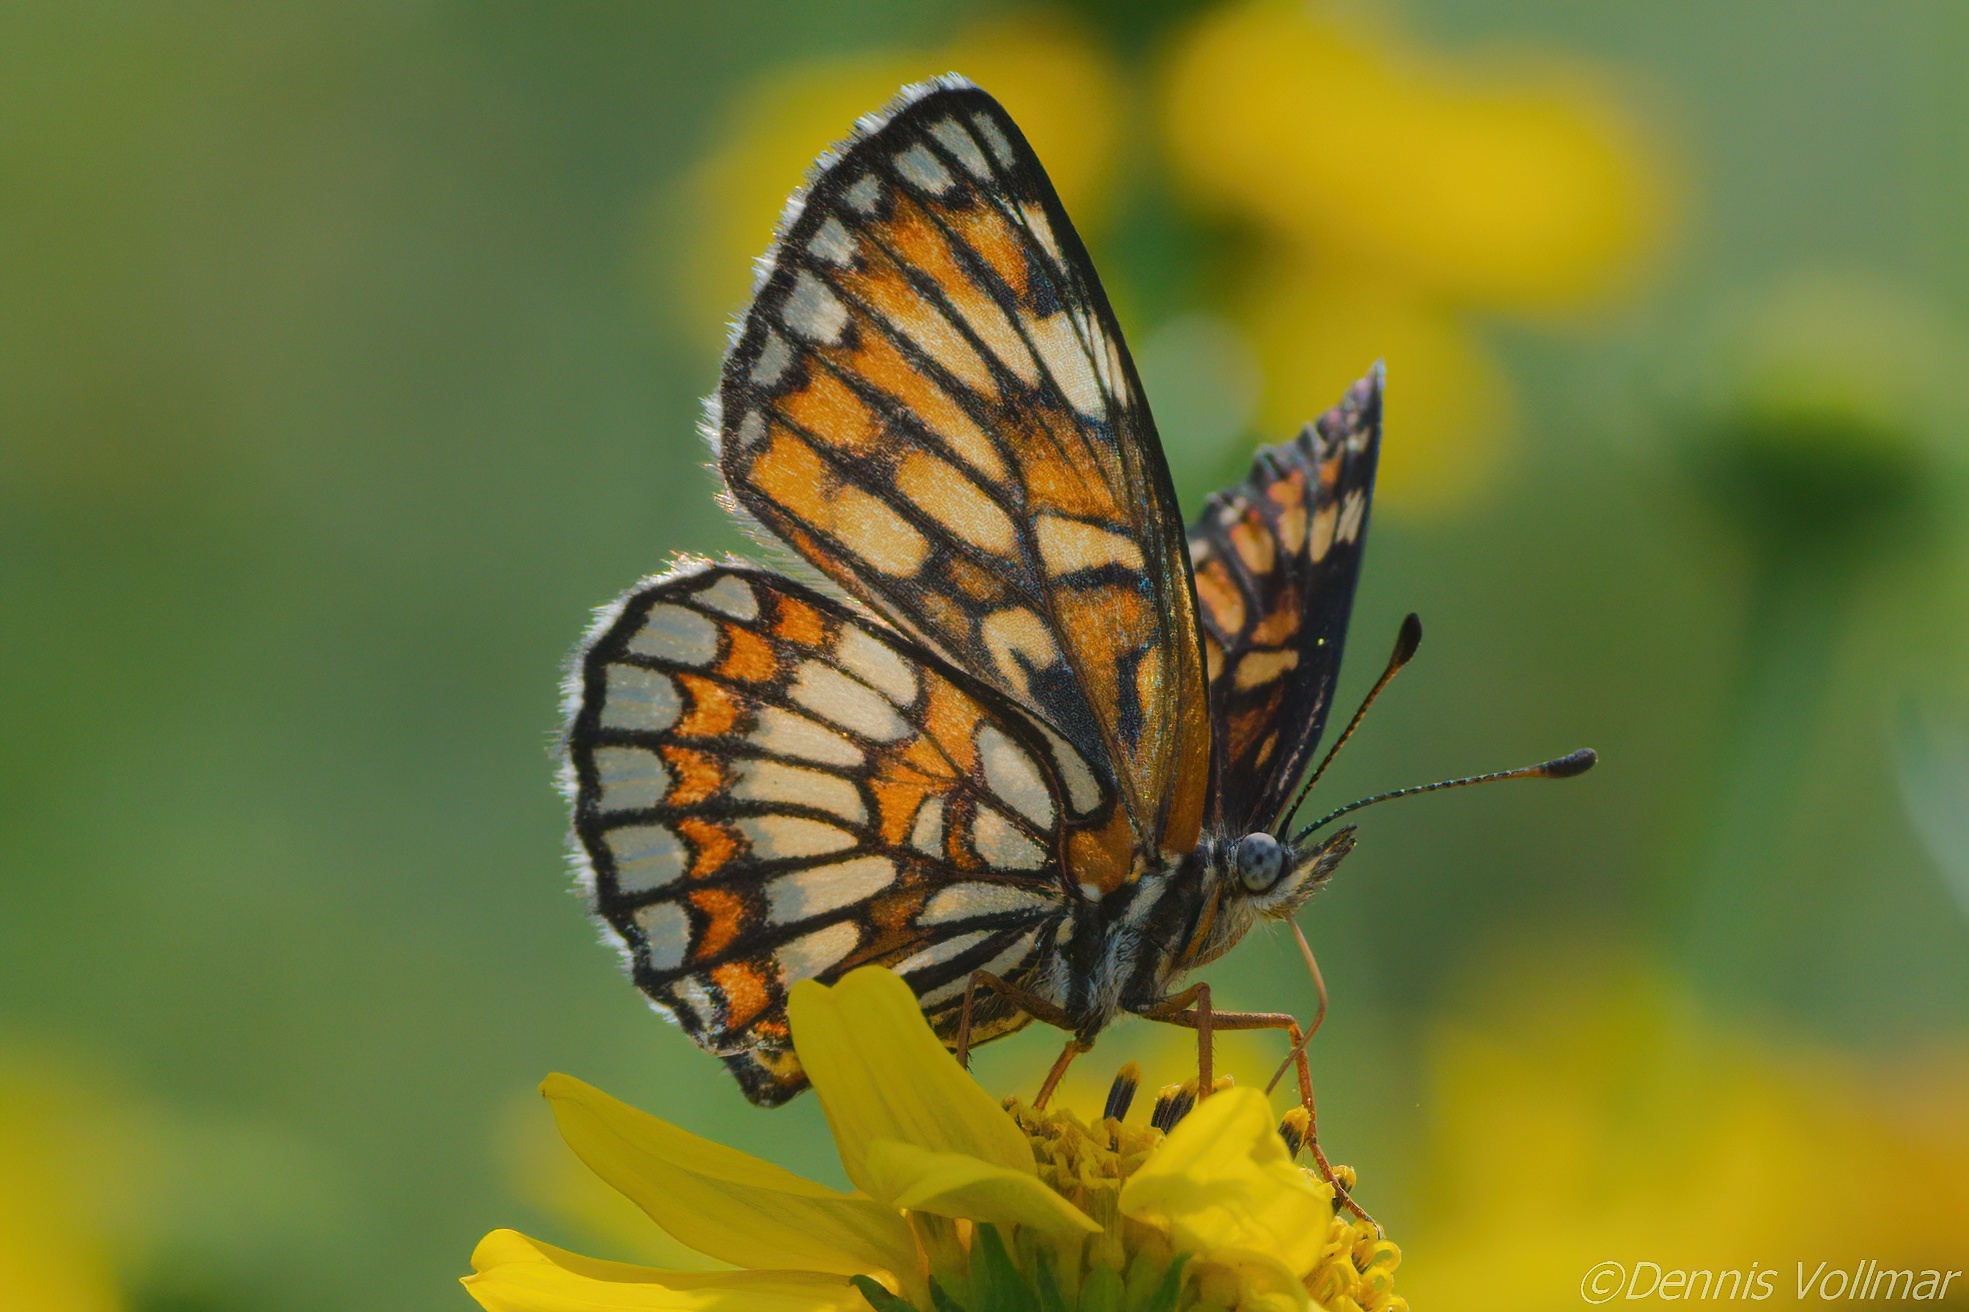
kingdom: Animalia
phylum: Arthropoda
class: Insecta
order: Lepidoptera
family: Nymphalidae
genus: Thessalia
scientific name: Thessalia theona
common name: Nymphalid moth
